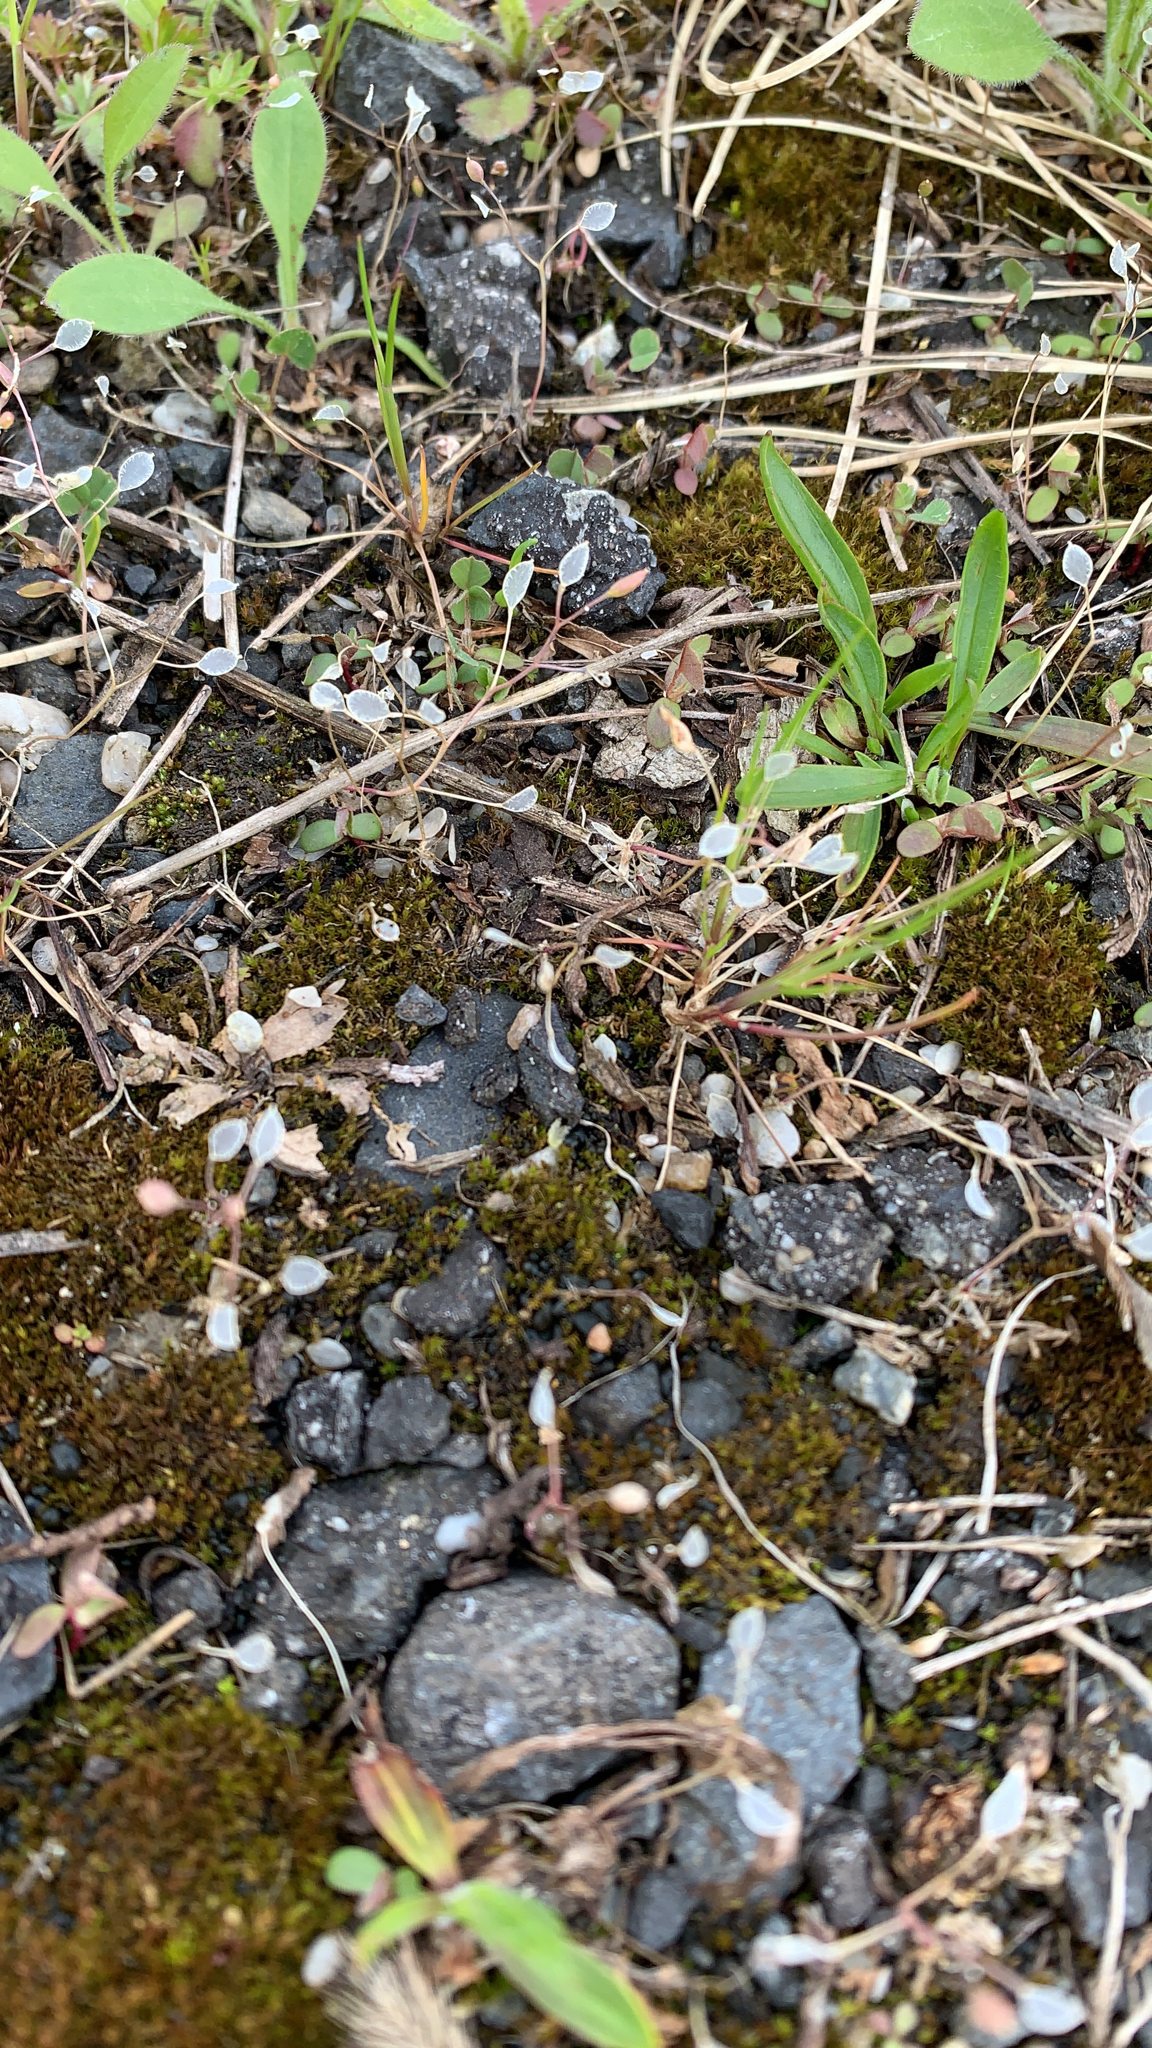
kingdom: Plantae
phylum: Tracheophyta
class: Magnoliopsida
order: Brassicales
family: Brassicaceae
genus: Draba
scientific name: Draba verna
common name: Spring draba
